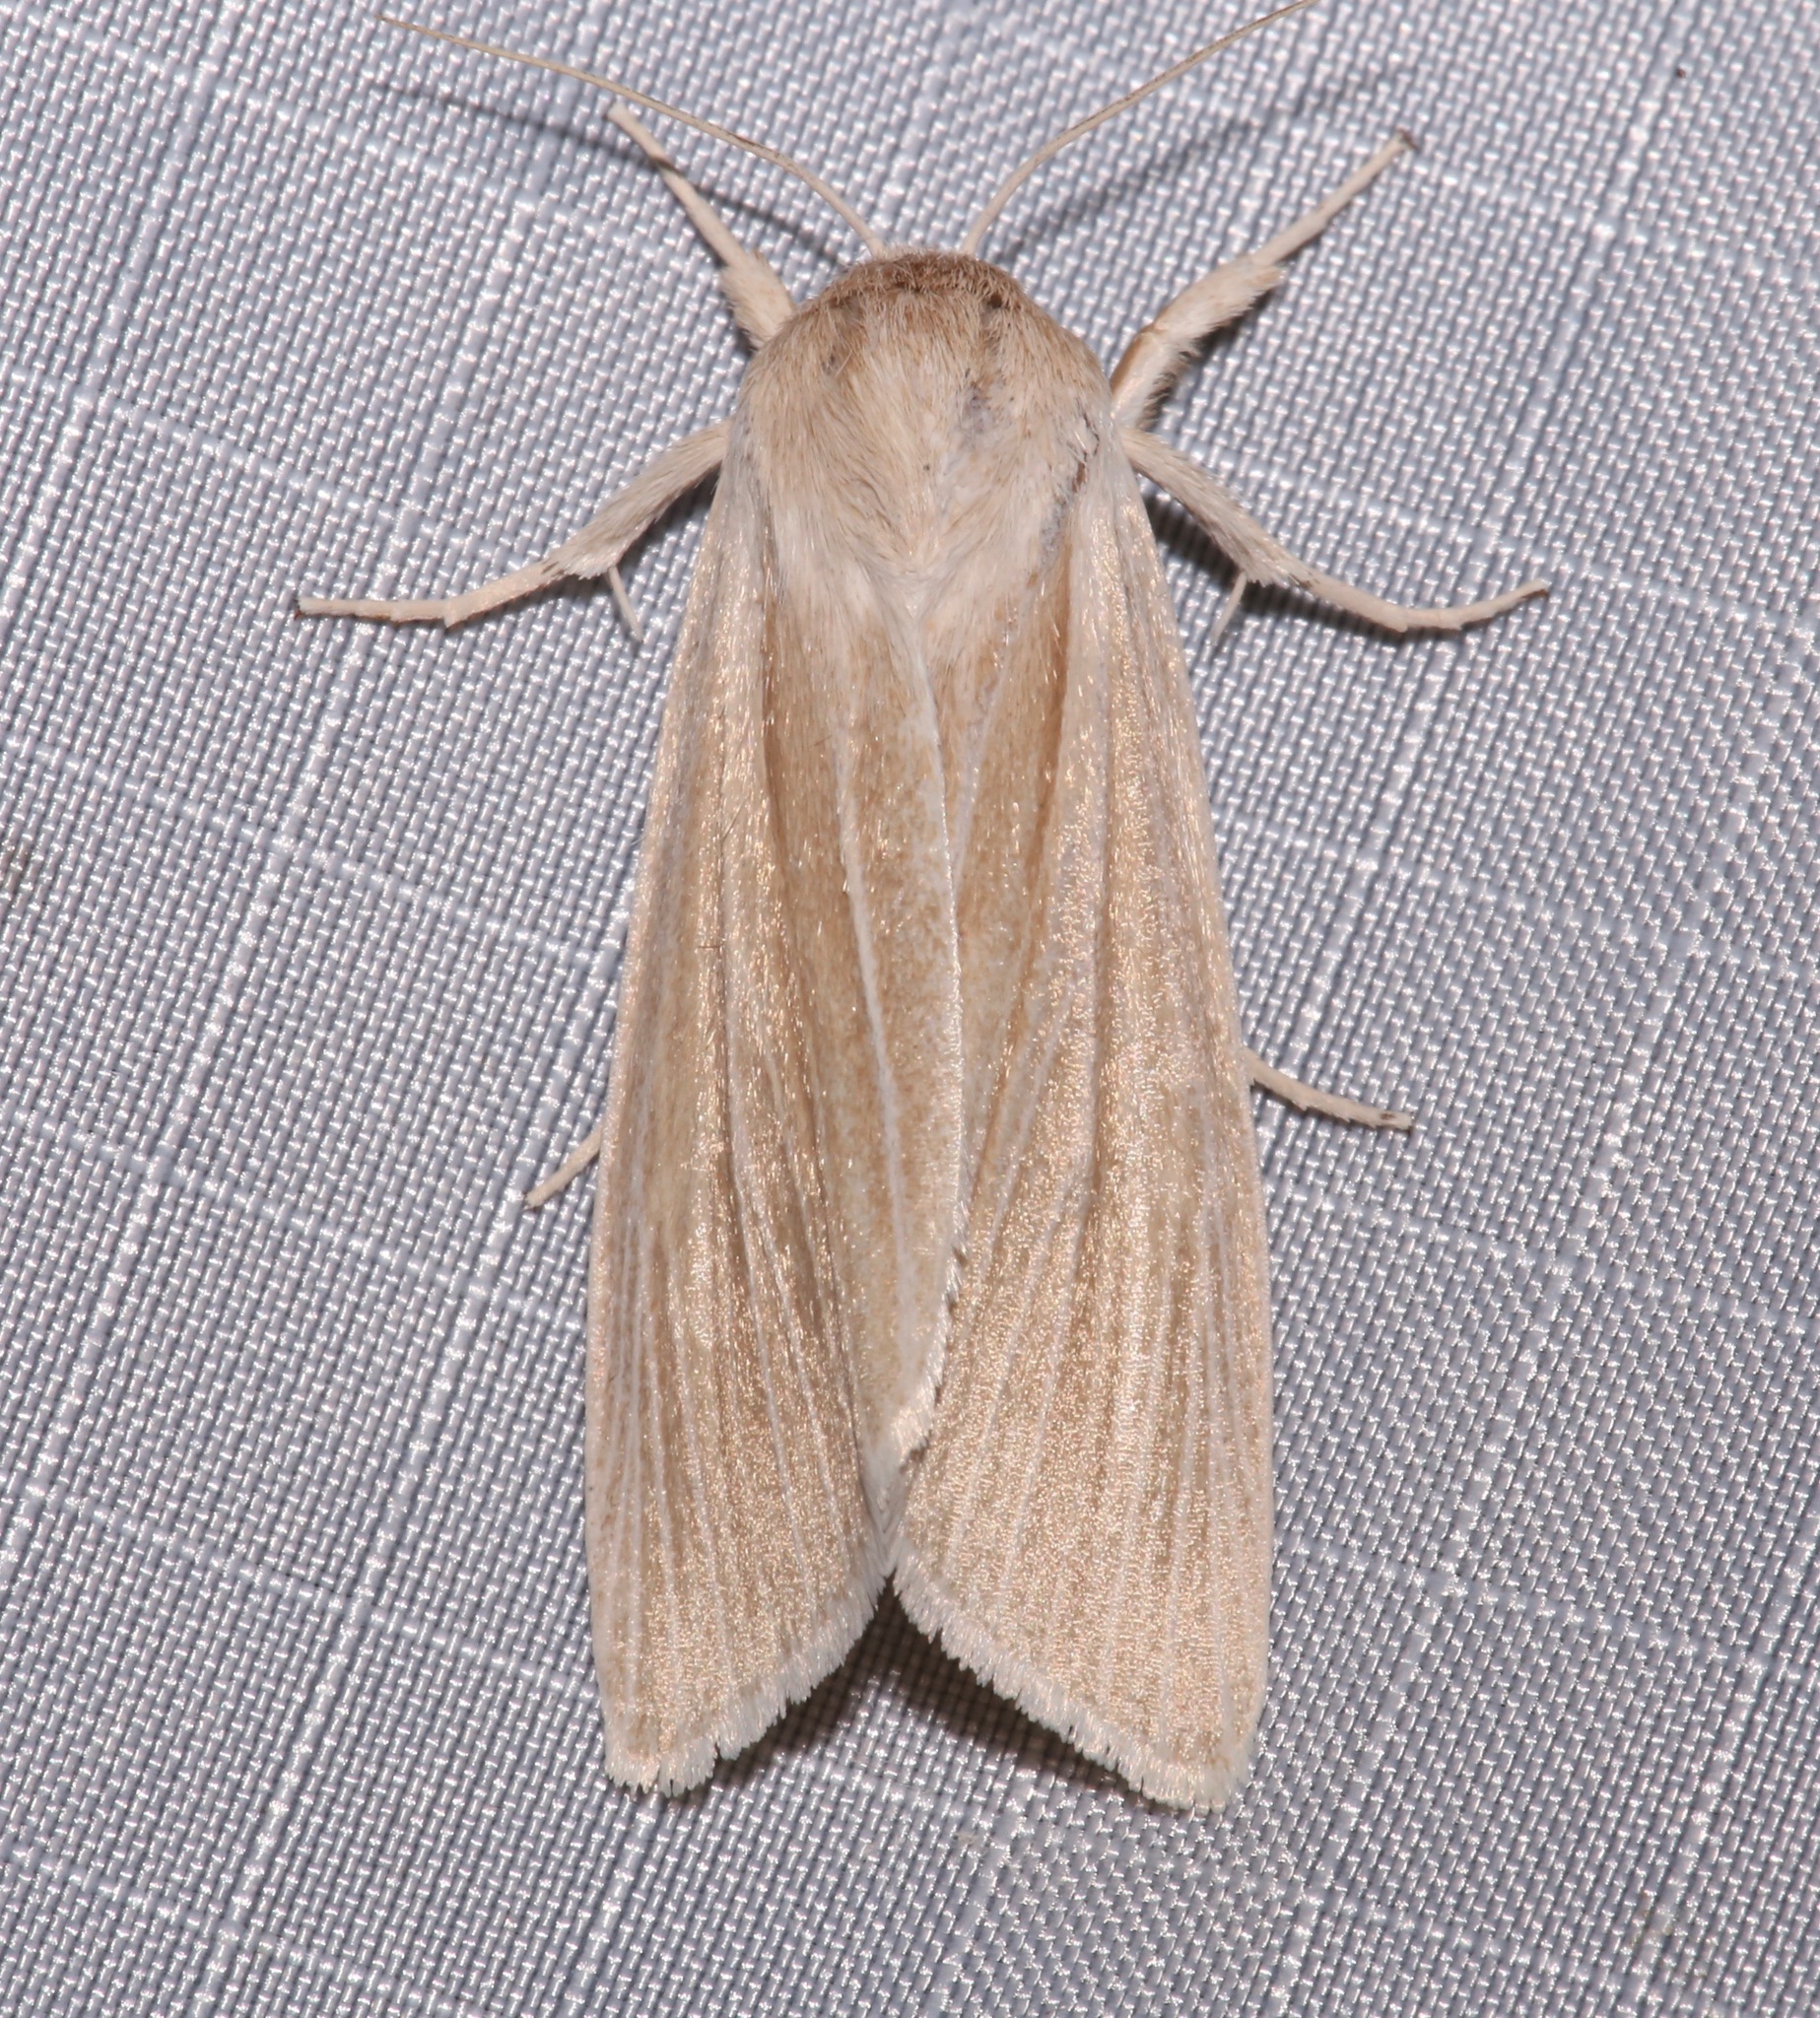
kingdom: Animalia
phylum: Arthropoda
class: Insecta
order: Lepidoptera
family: Noctuidae
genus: Acronicta
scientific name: Acronicta insularis
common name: Henry's marsh moth
